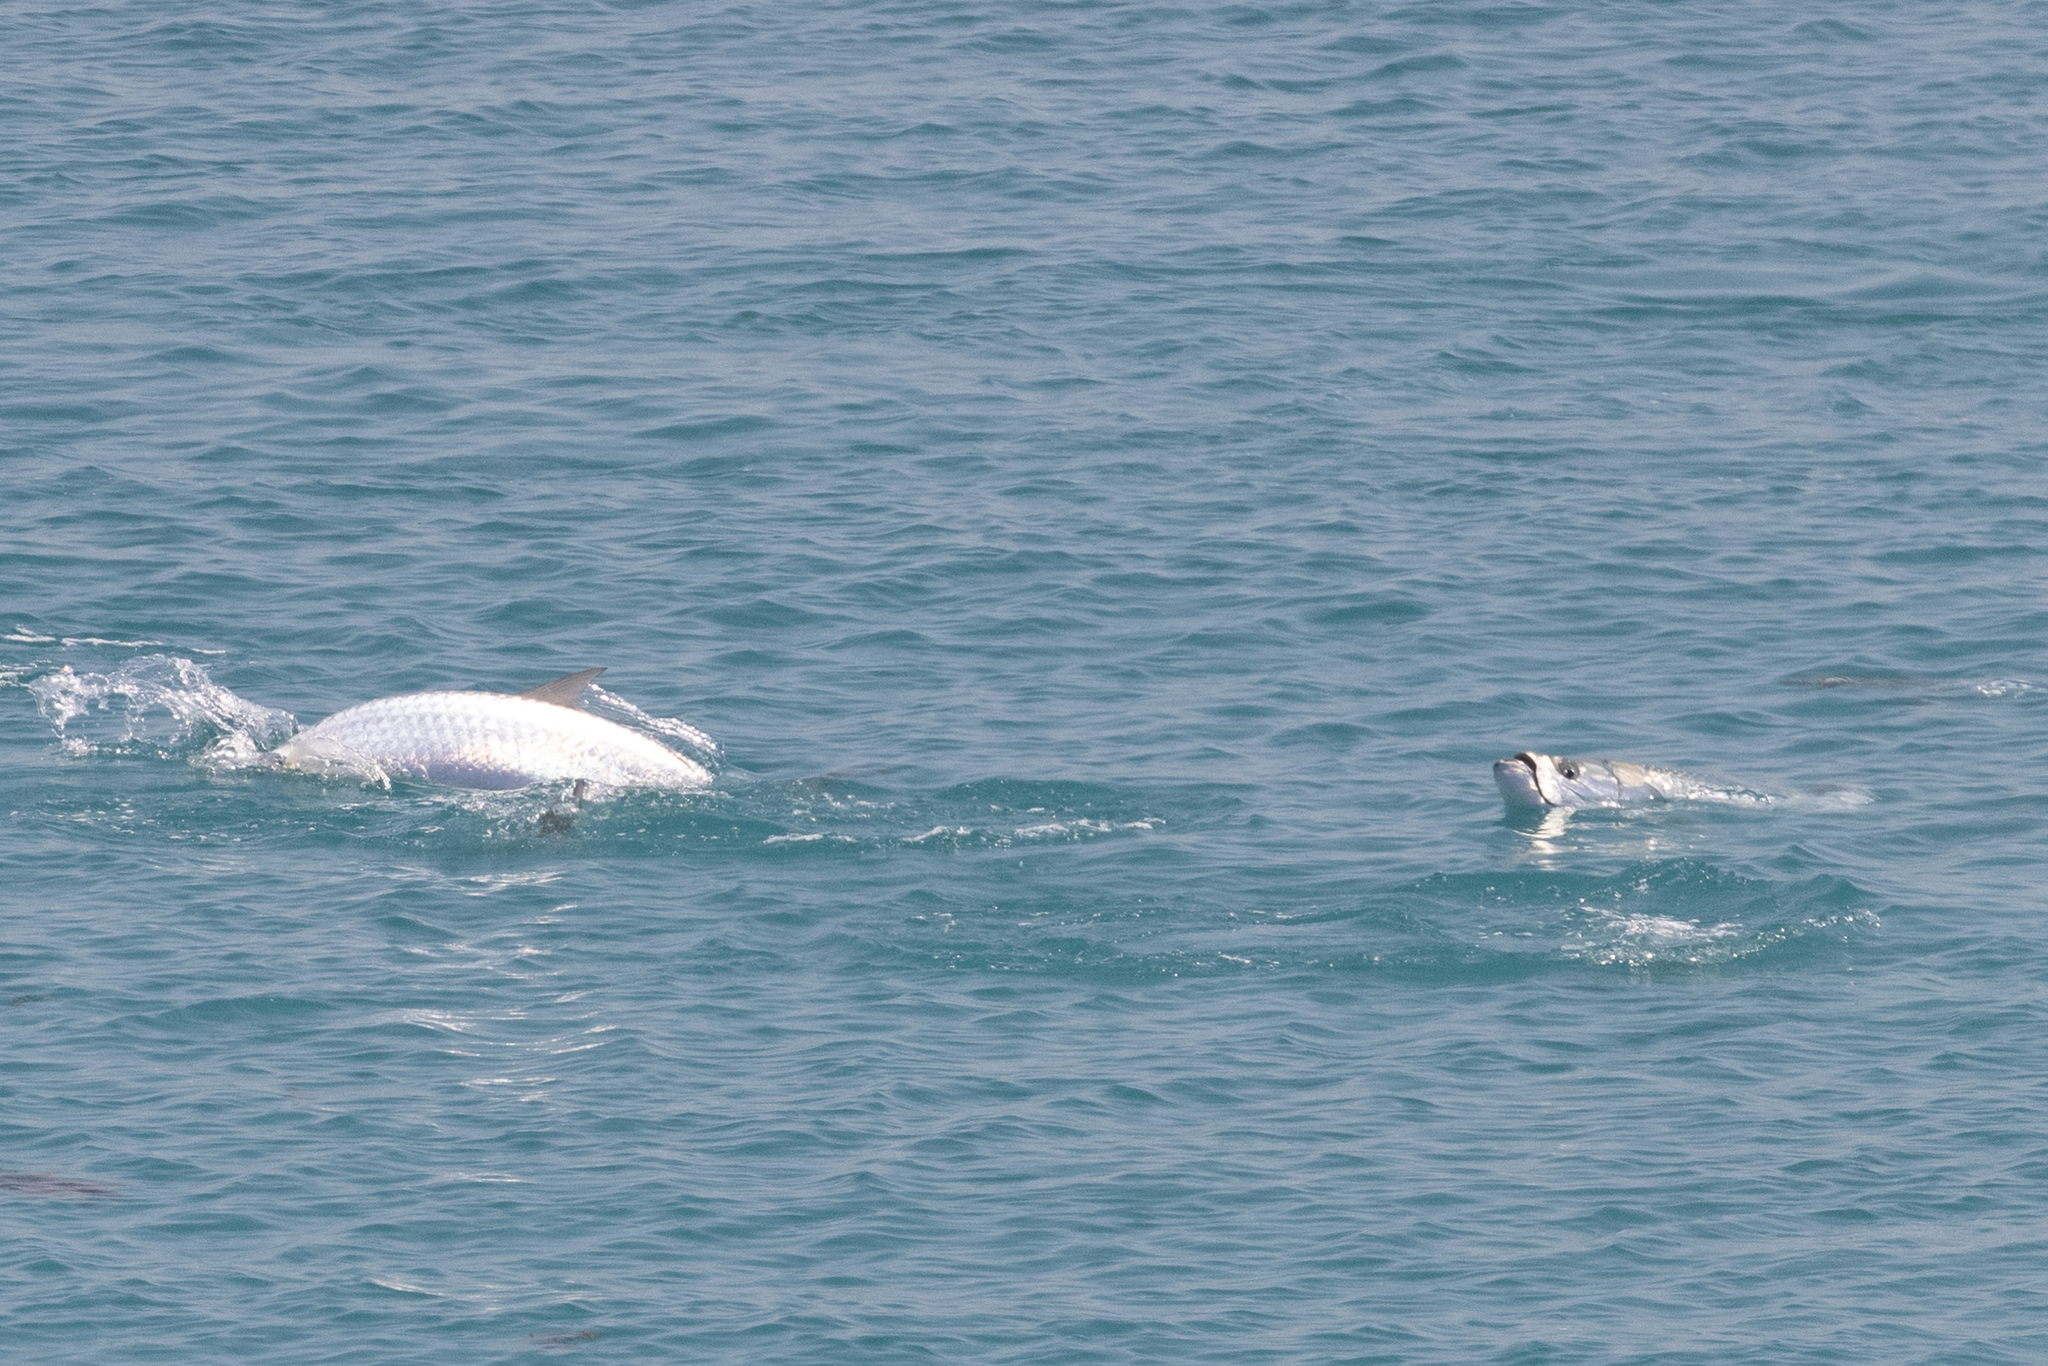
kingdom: Animalia
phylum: Chordata
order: Elopiformes
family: Megalopidae
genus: Megalops
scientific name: Megalops atlanticus
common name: Tarpon
